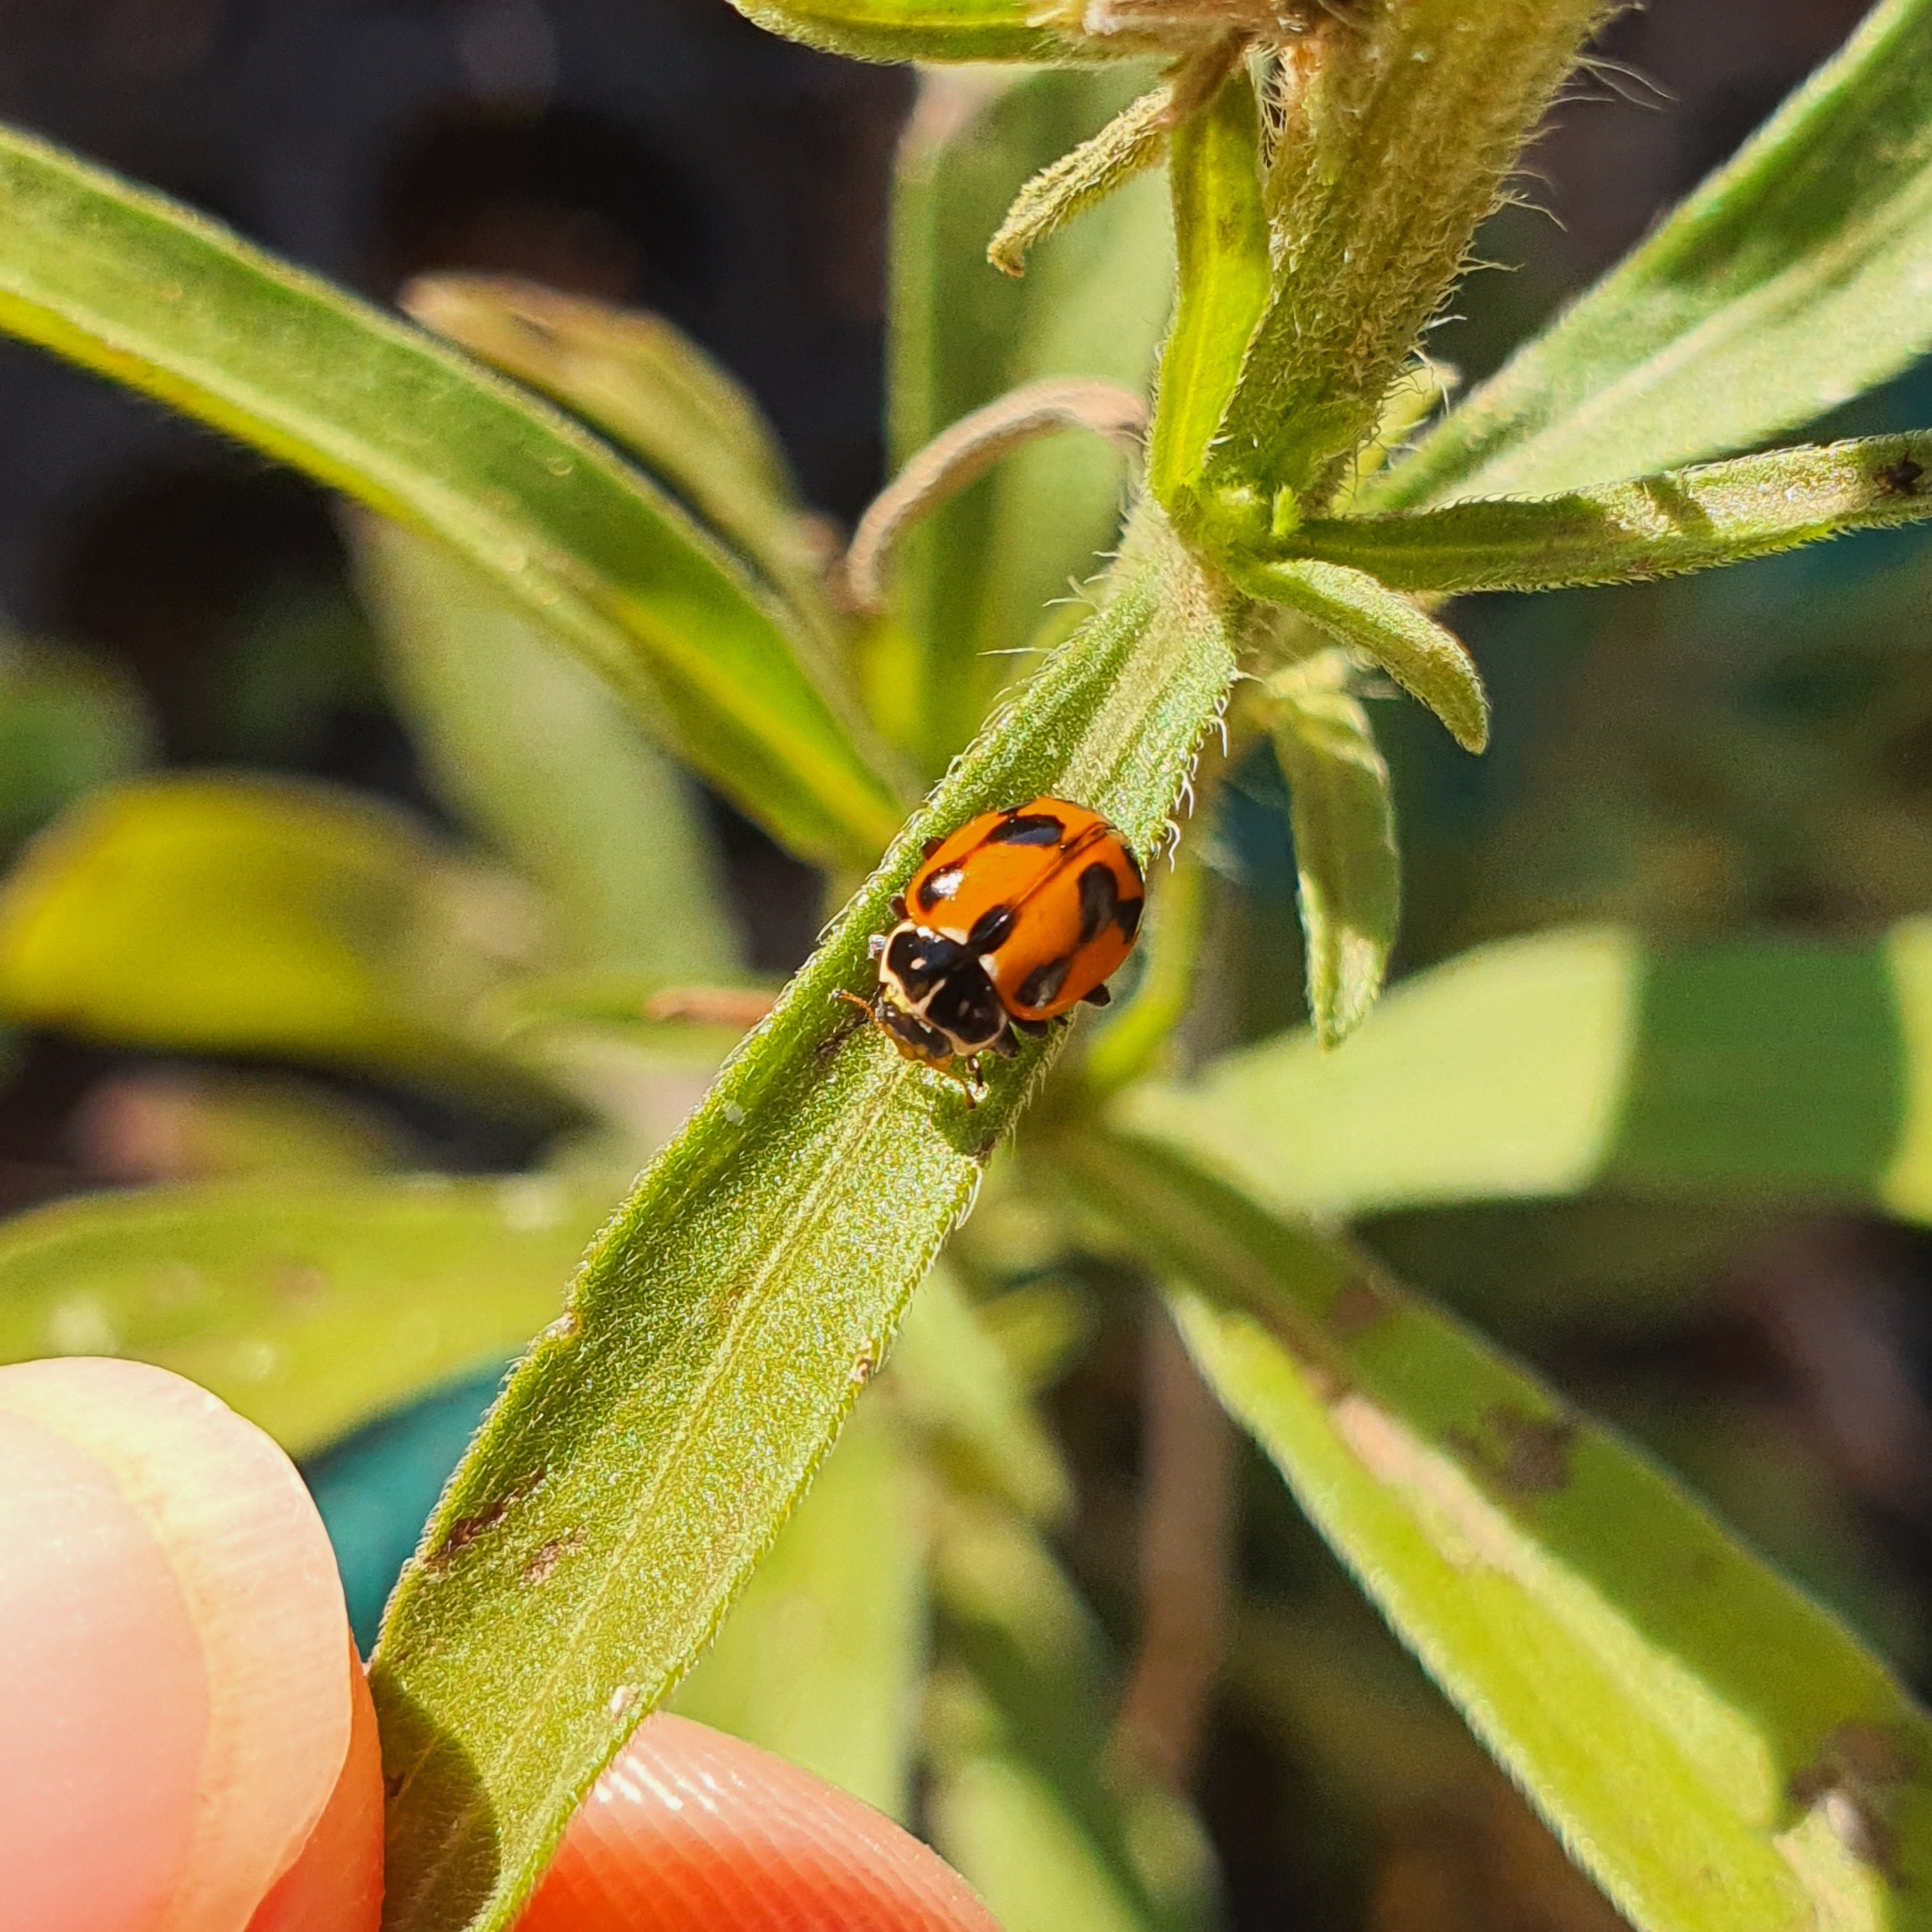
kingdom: Animalia
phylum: Arthropoda
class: Insecta
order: Coleoptera
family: Coccinellidae
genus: Hippodamia
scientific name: Hippodamia variegata
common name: Ladybird beetle
